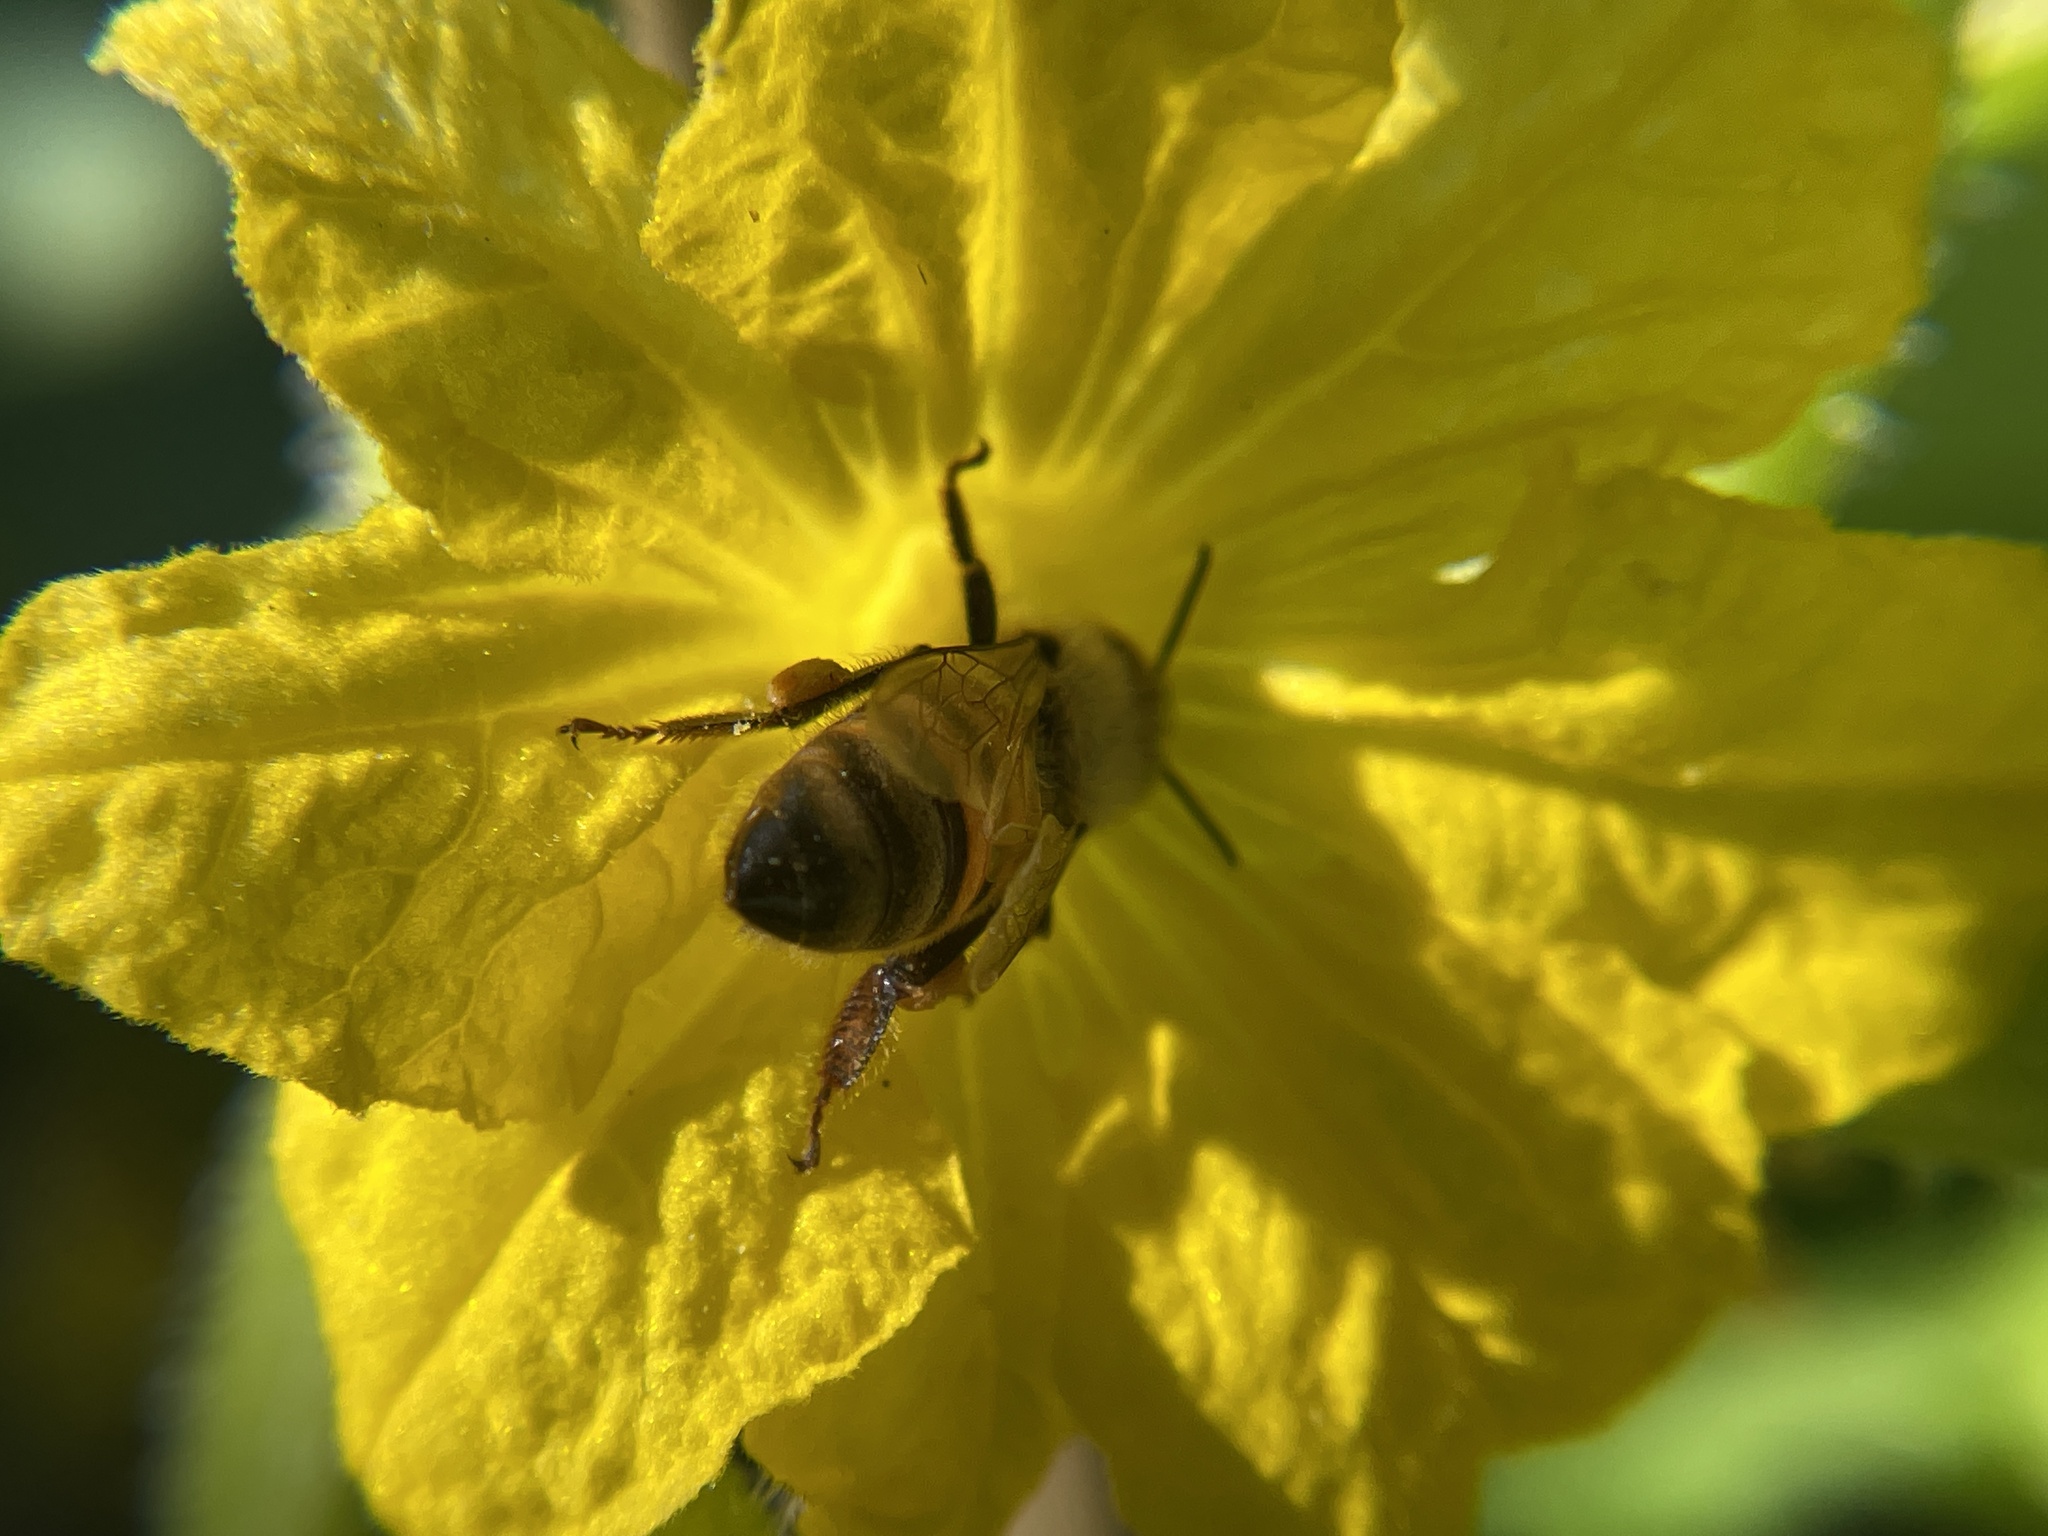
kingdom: Animalia
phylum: Arthropoda
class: Insecta
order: Hymenoptera
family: Apidae
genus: Apis
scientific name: Apis mellifera
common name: Honey bee
